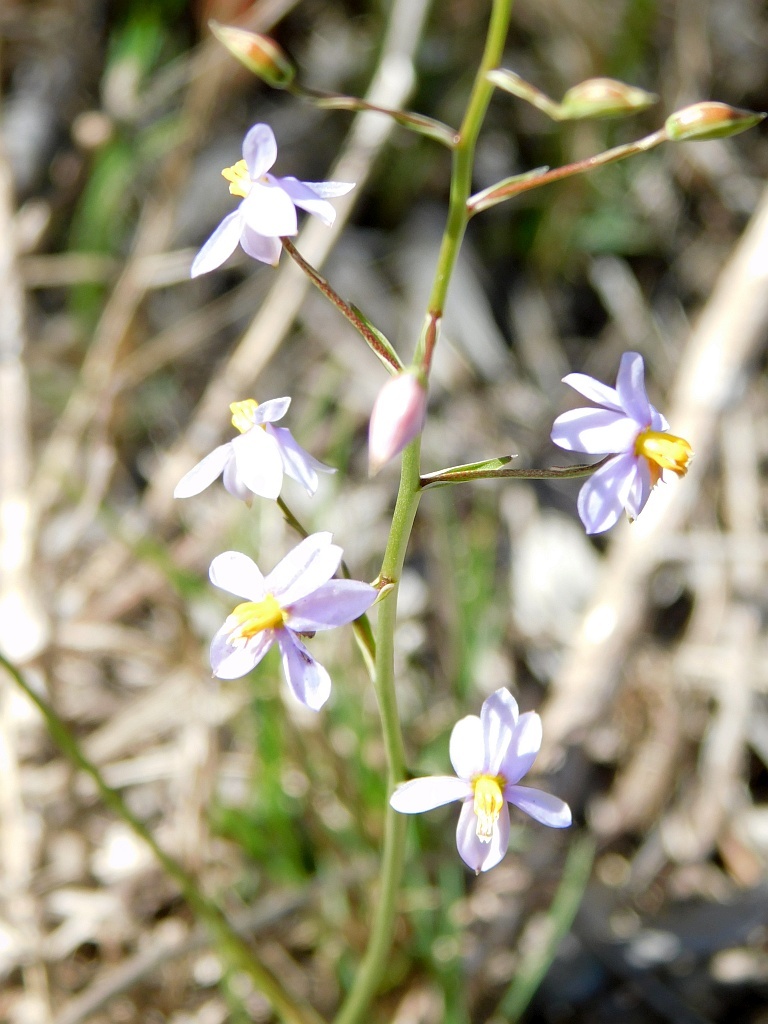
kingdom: Plantae
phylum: Tracheophyta
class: Liliopsida
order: Asparagales
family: Tecophilaeaceae
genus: Cyanella
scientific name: Cyanella hyacinthoides
